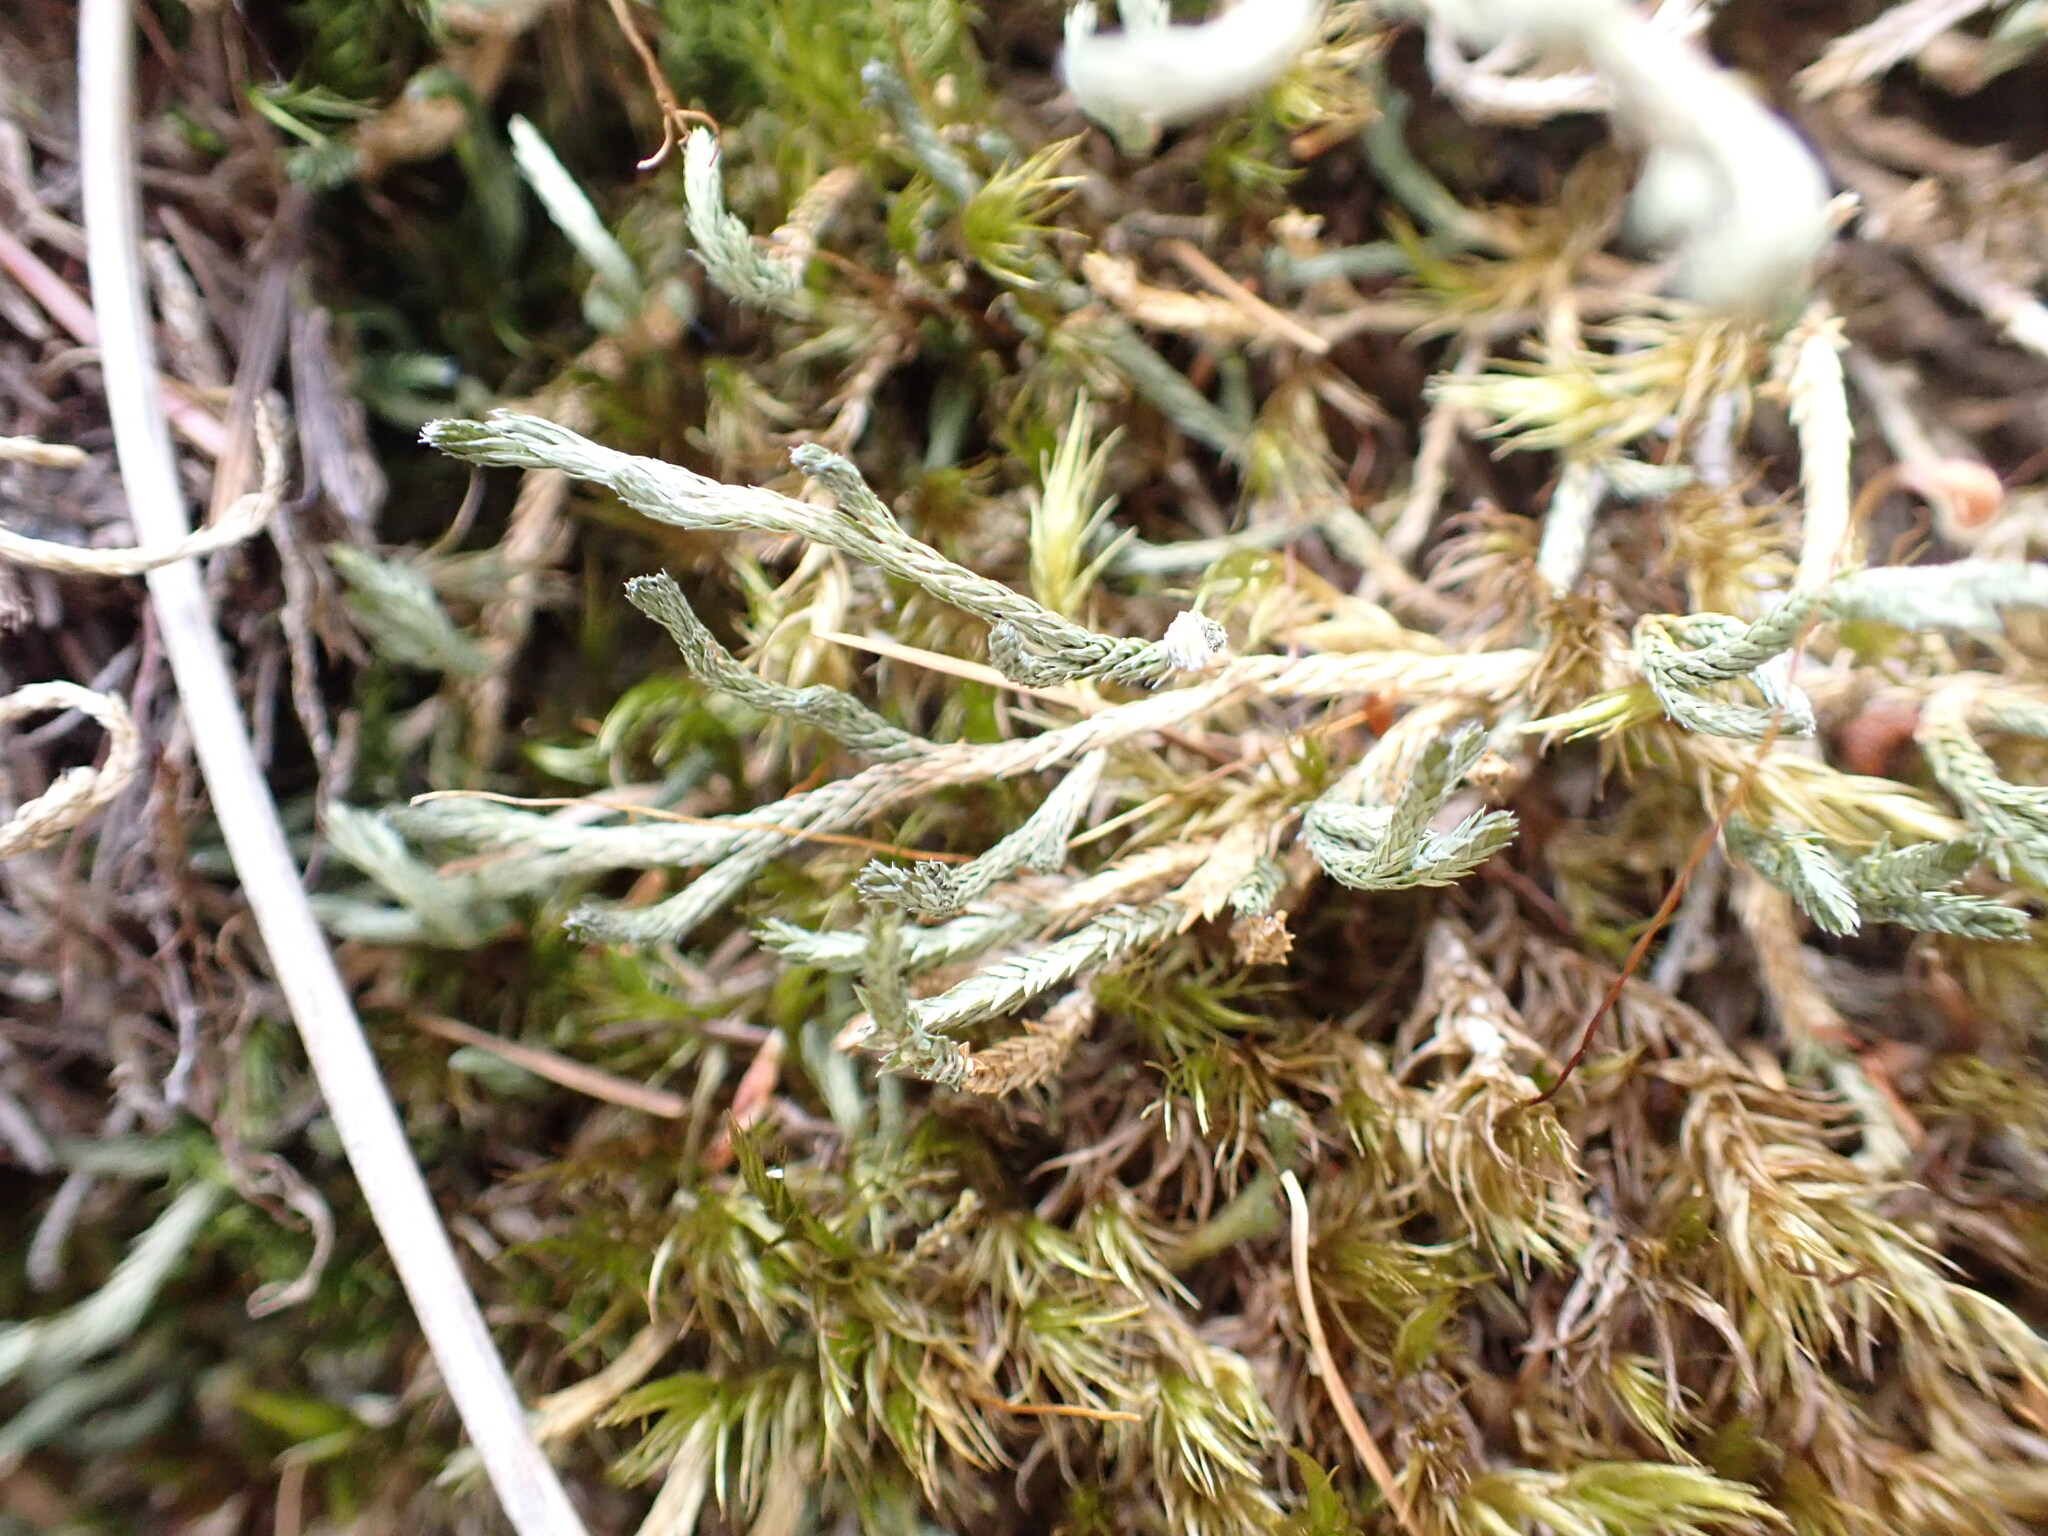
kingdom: Plantae
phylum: Tracheophyta
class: Lycopodiopsida
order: Selaginellales
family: Selaginellaceae
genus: Selaginella
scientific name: Selaginella wallacei
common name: Wallace's selaginella
